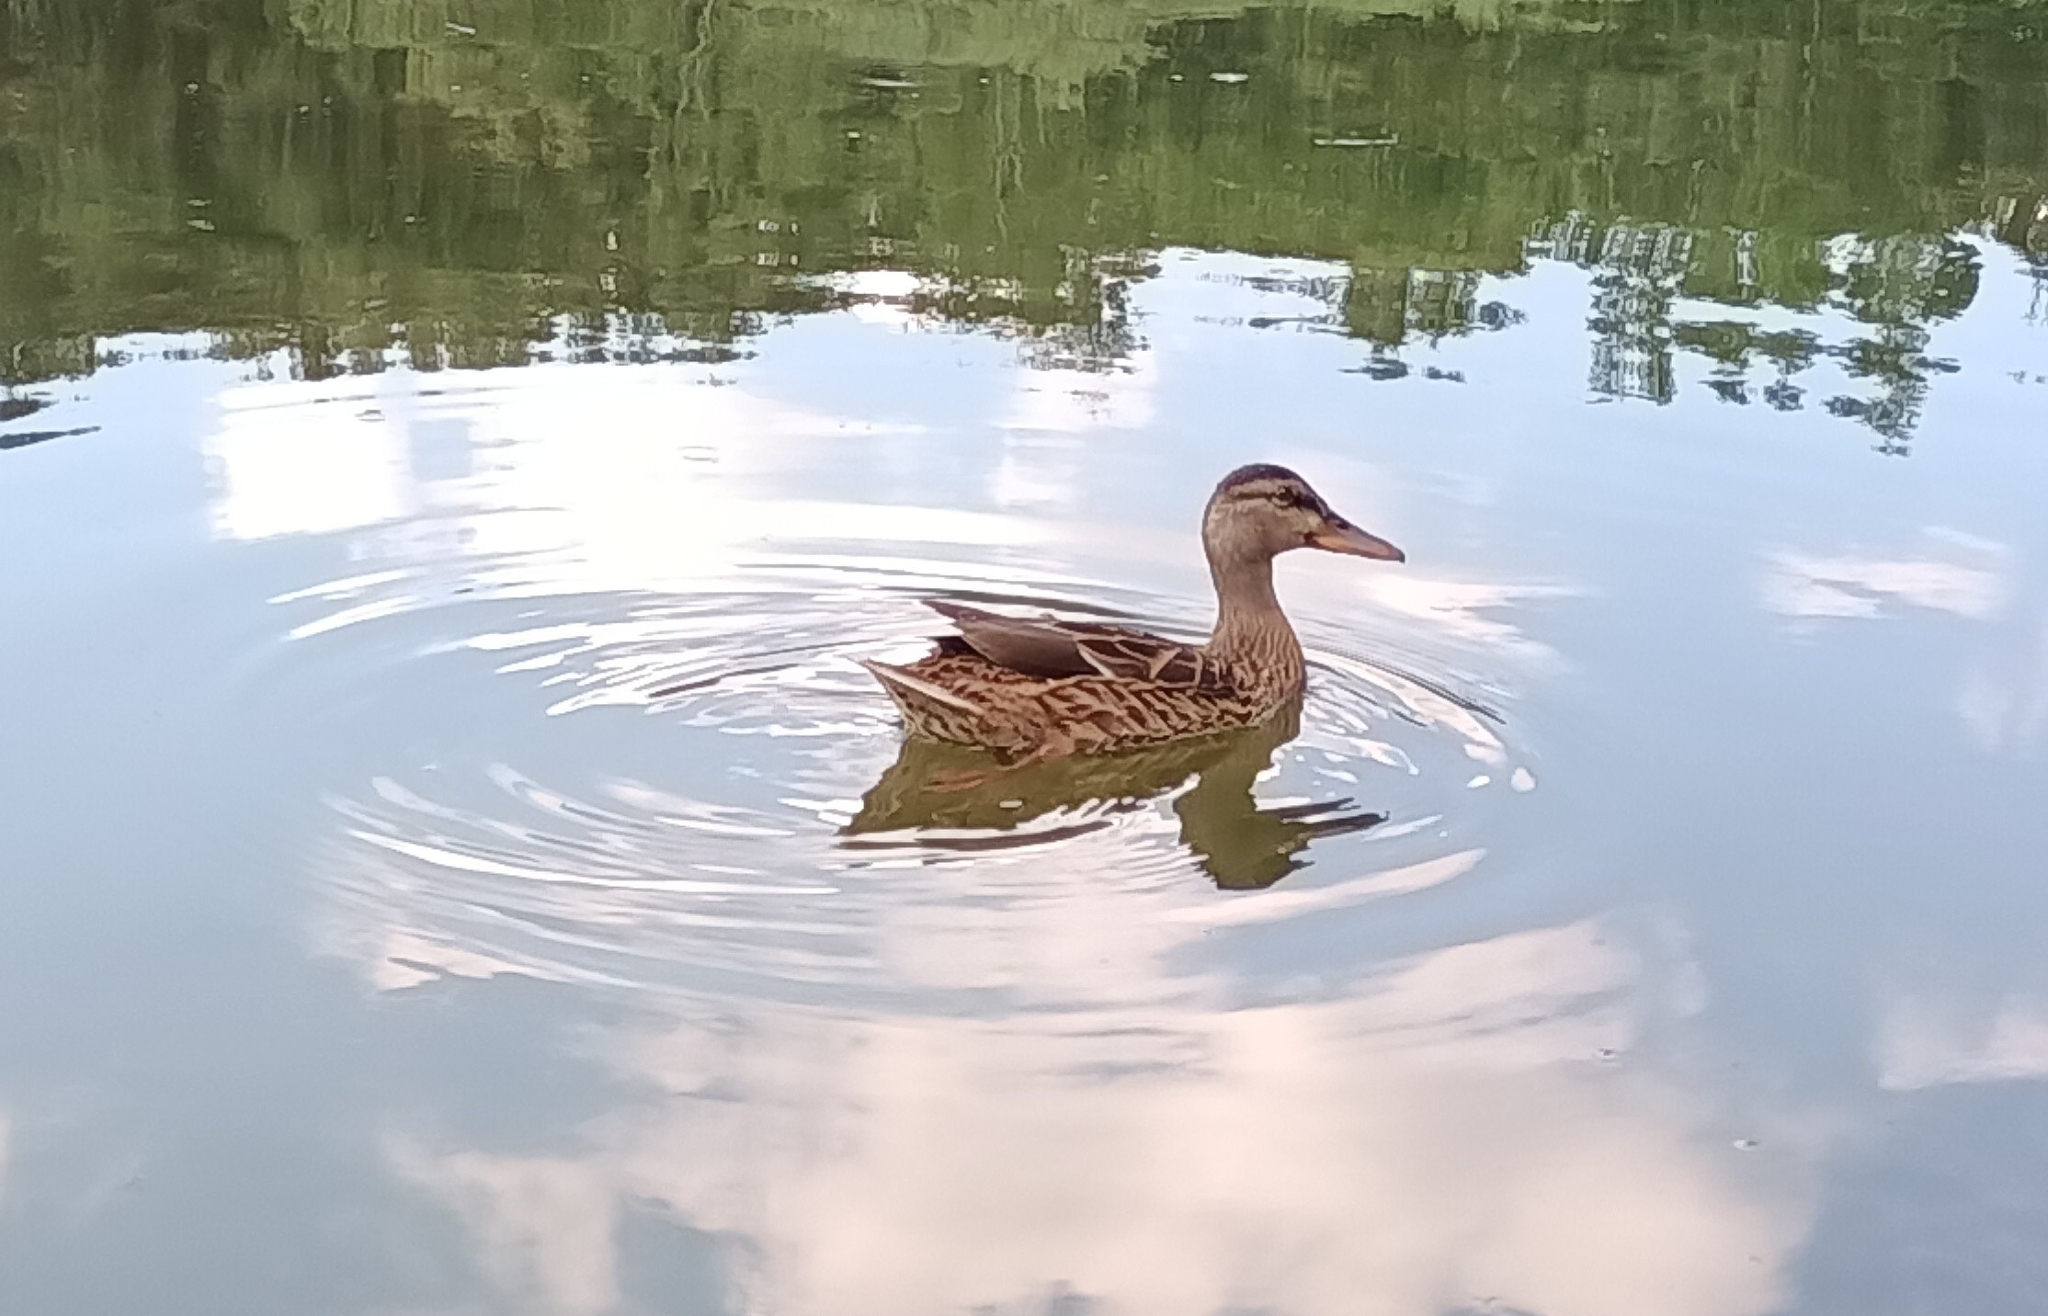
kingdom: Animalia
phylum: Chordata
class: Aves
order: Anseriformes
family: Anatidae
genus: Anas
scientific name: Anas platyrhynchos
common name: Mallard
